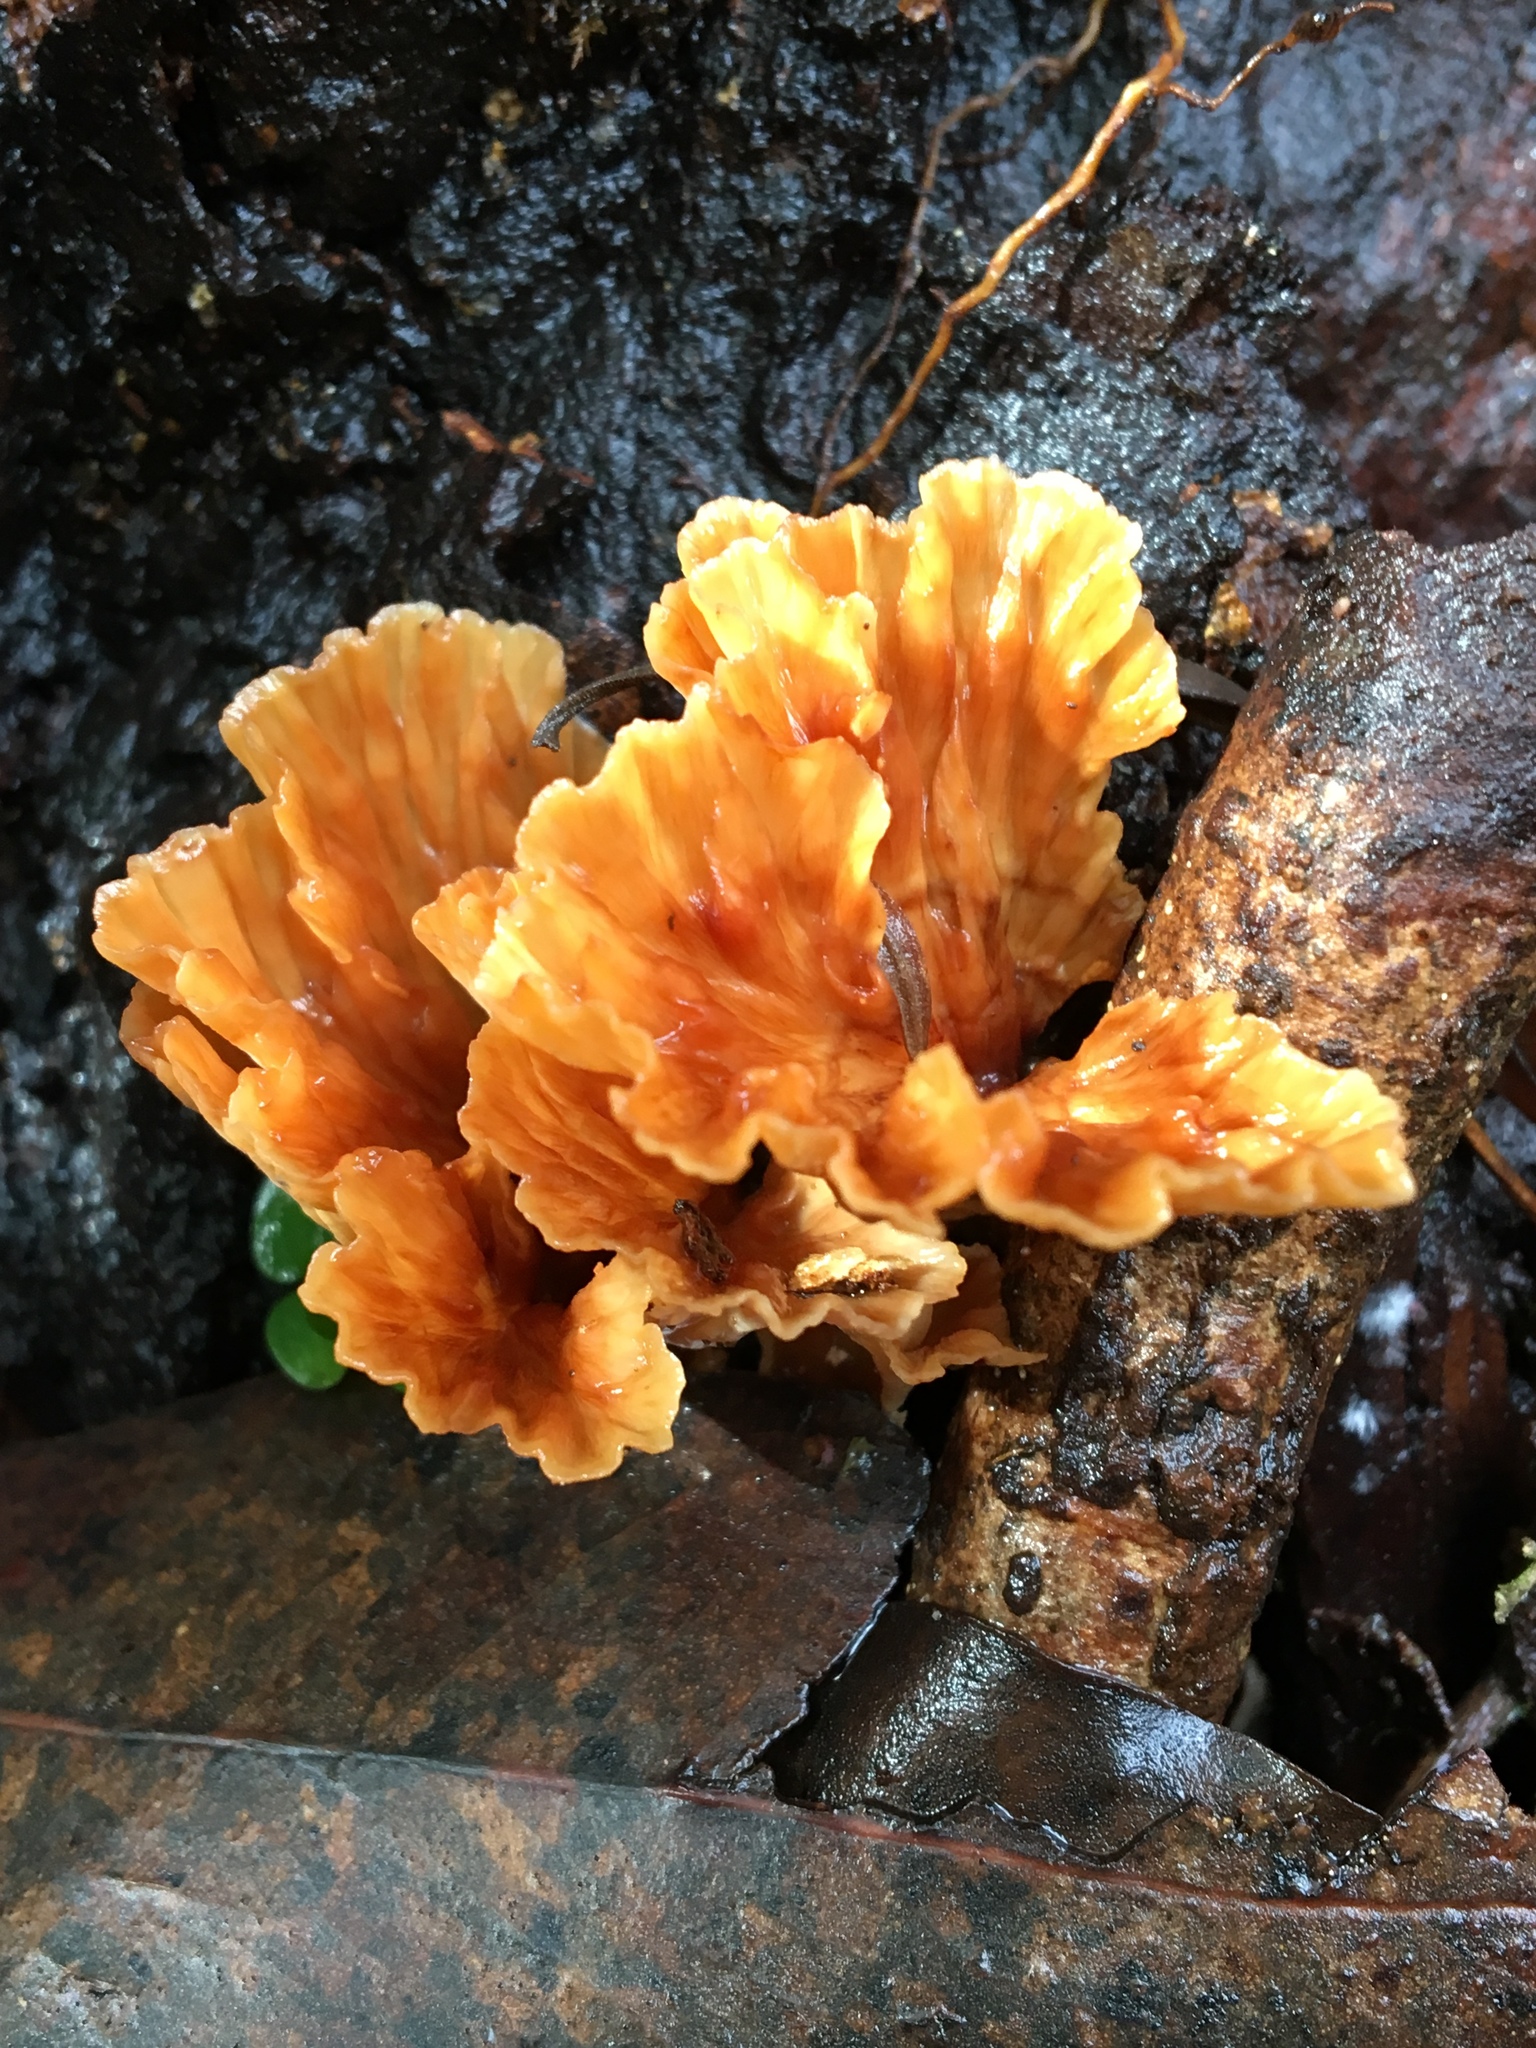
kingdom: Fungi
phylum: Basidiomycota
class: Agaricomycetes
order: Polyporales
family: Podoscyphaceae
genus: Podoscypha
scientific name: Podoscypha petalodes
